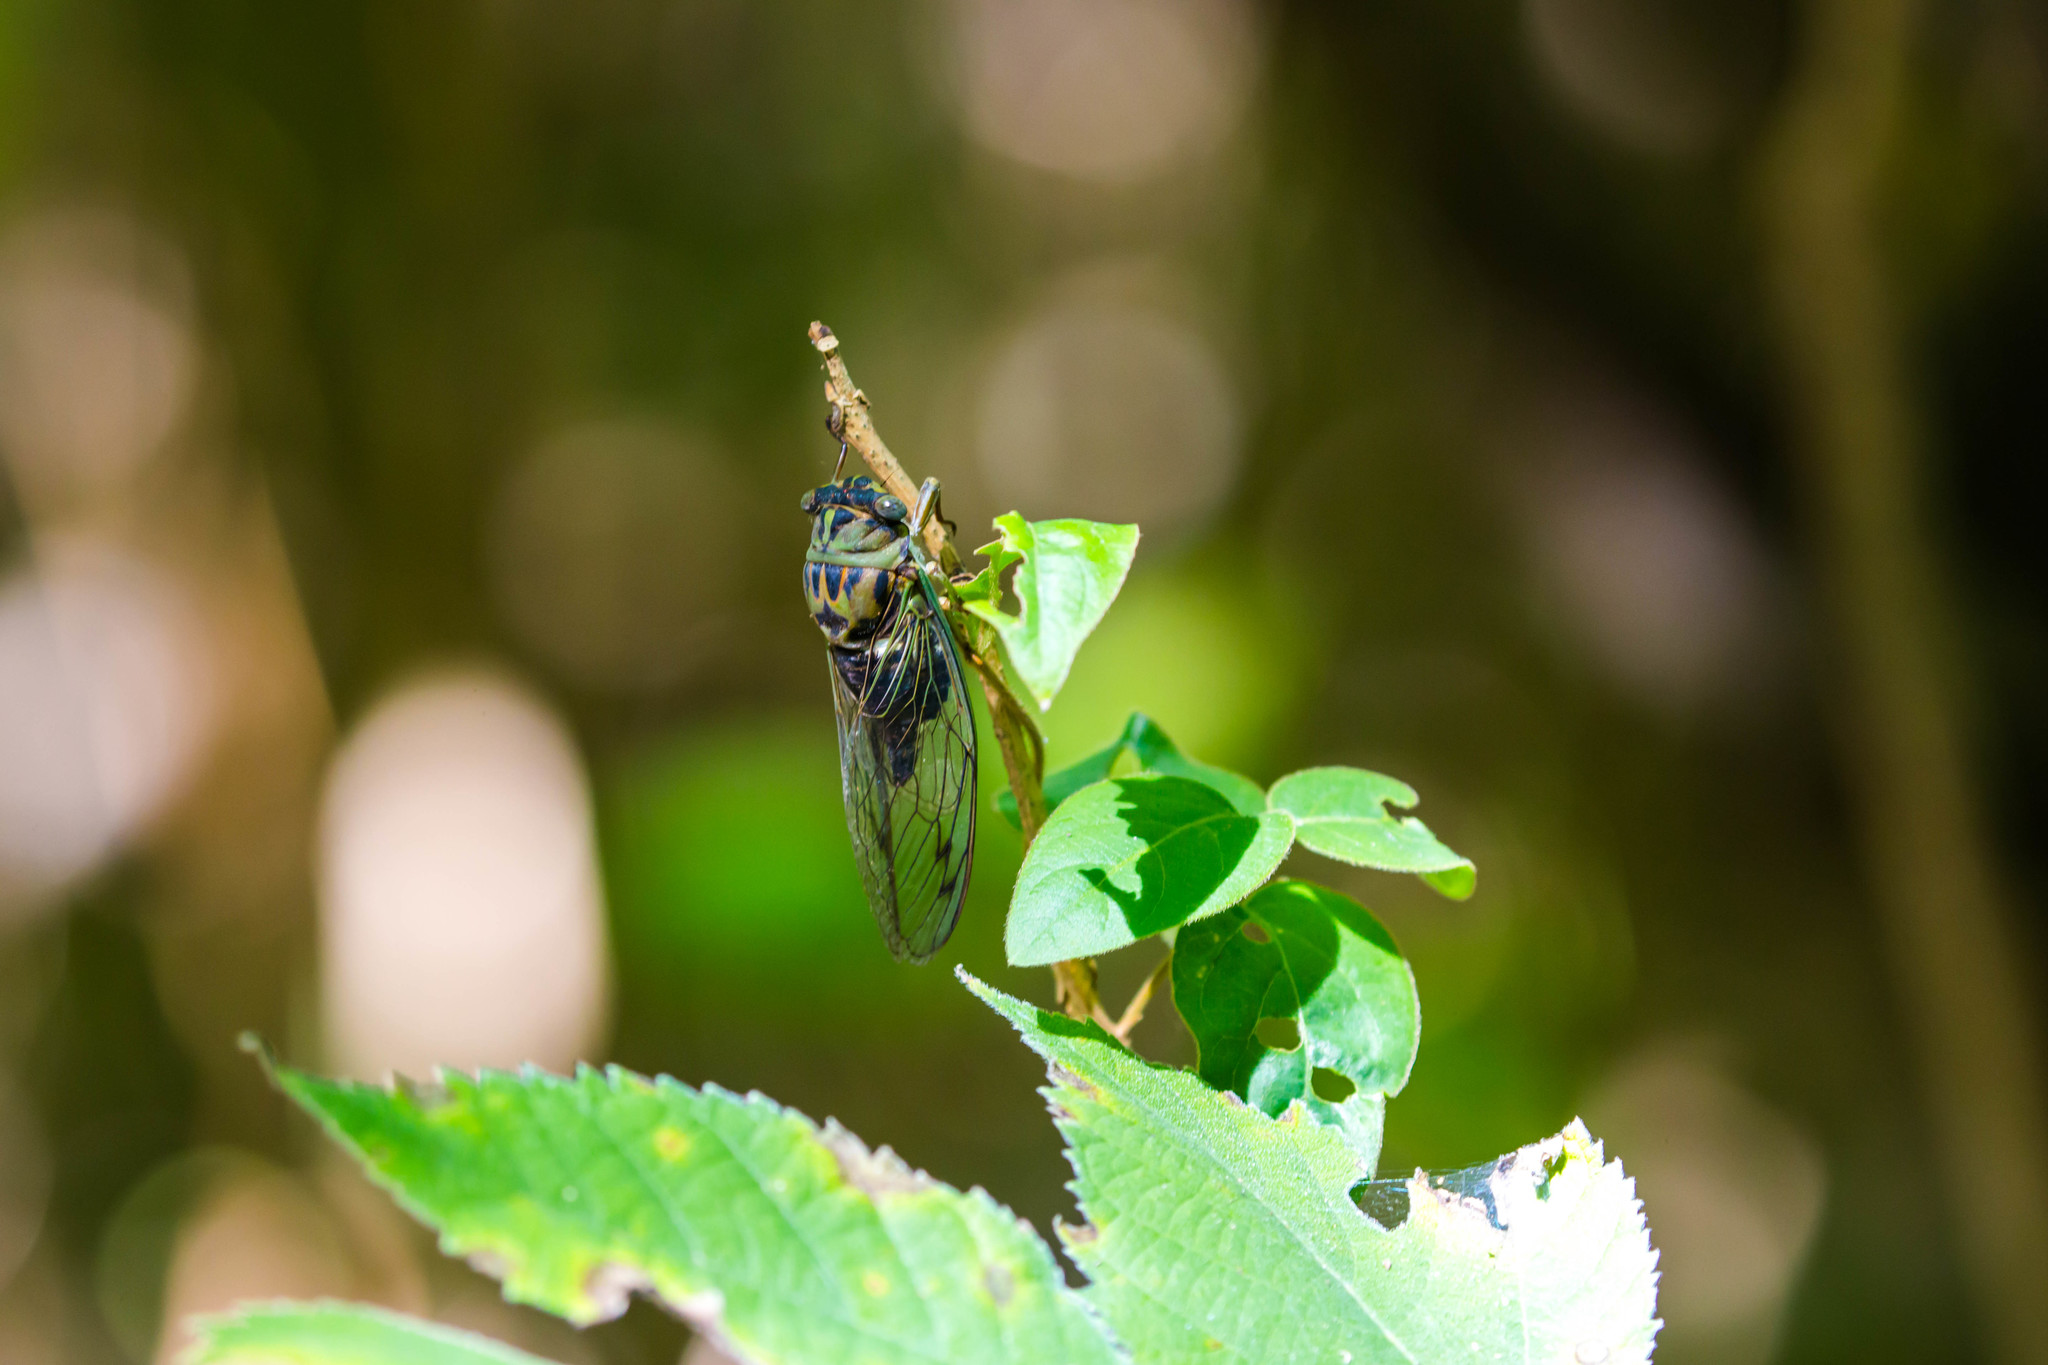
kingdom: Animalia
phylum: Arthropoda
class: Insecta
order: Hemiptera
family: Cicadidae
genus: Neotibicen
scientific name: Neotibicen pruinosus
